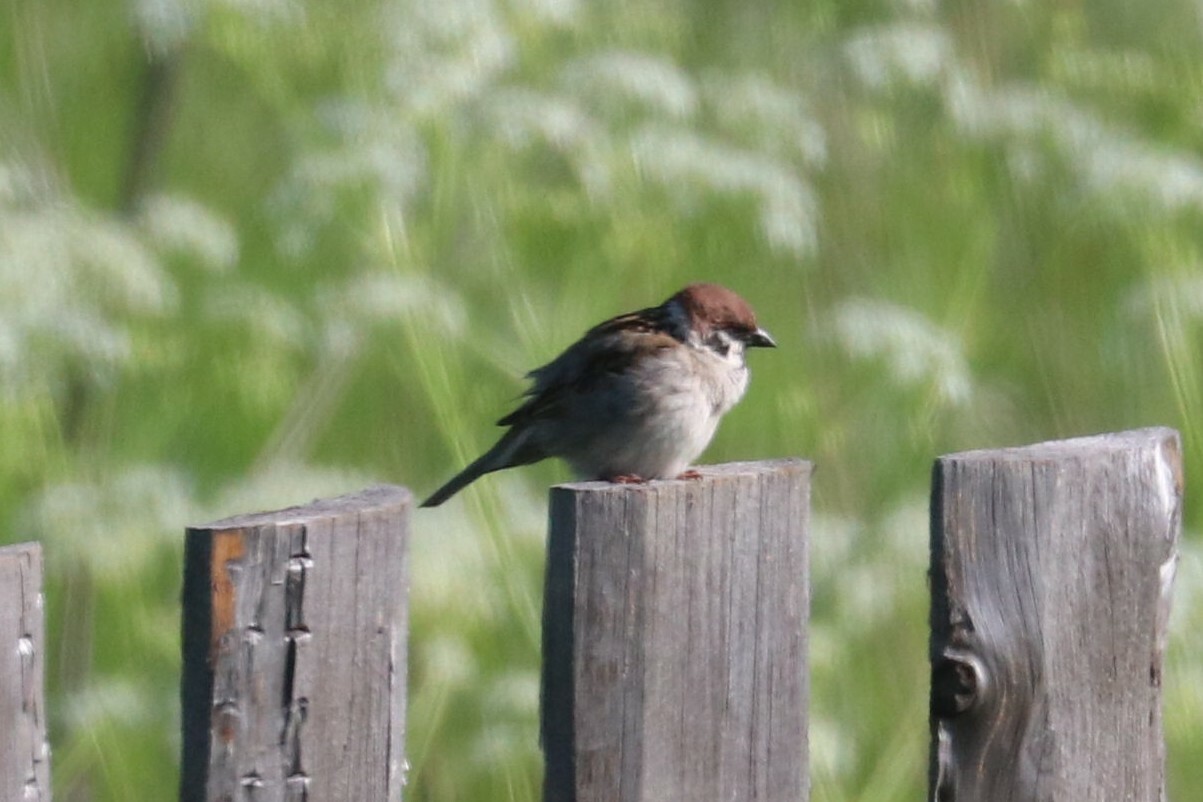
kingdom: Animalia
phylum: Chordata
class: Aves
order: Passeriformes
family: Passeridae
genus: Passer
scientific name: Passer montanus
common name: Eurasian tree sparrow
